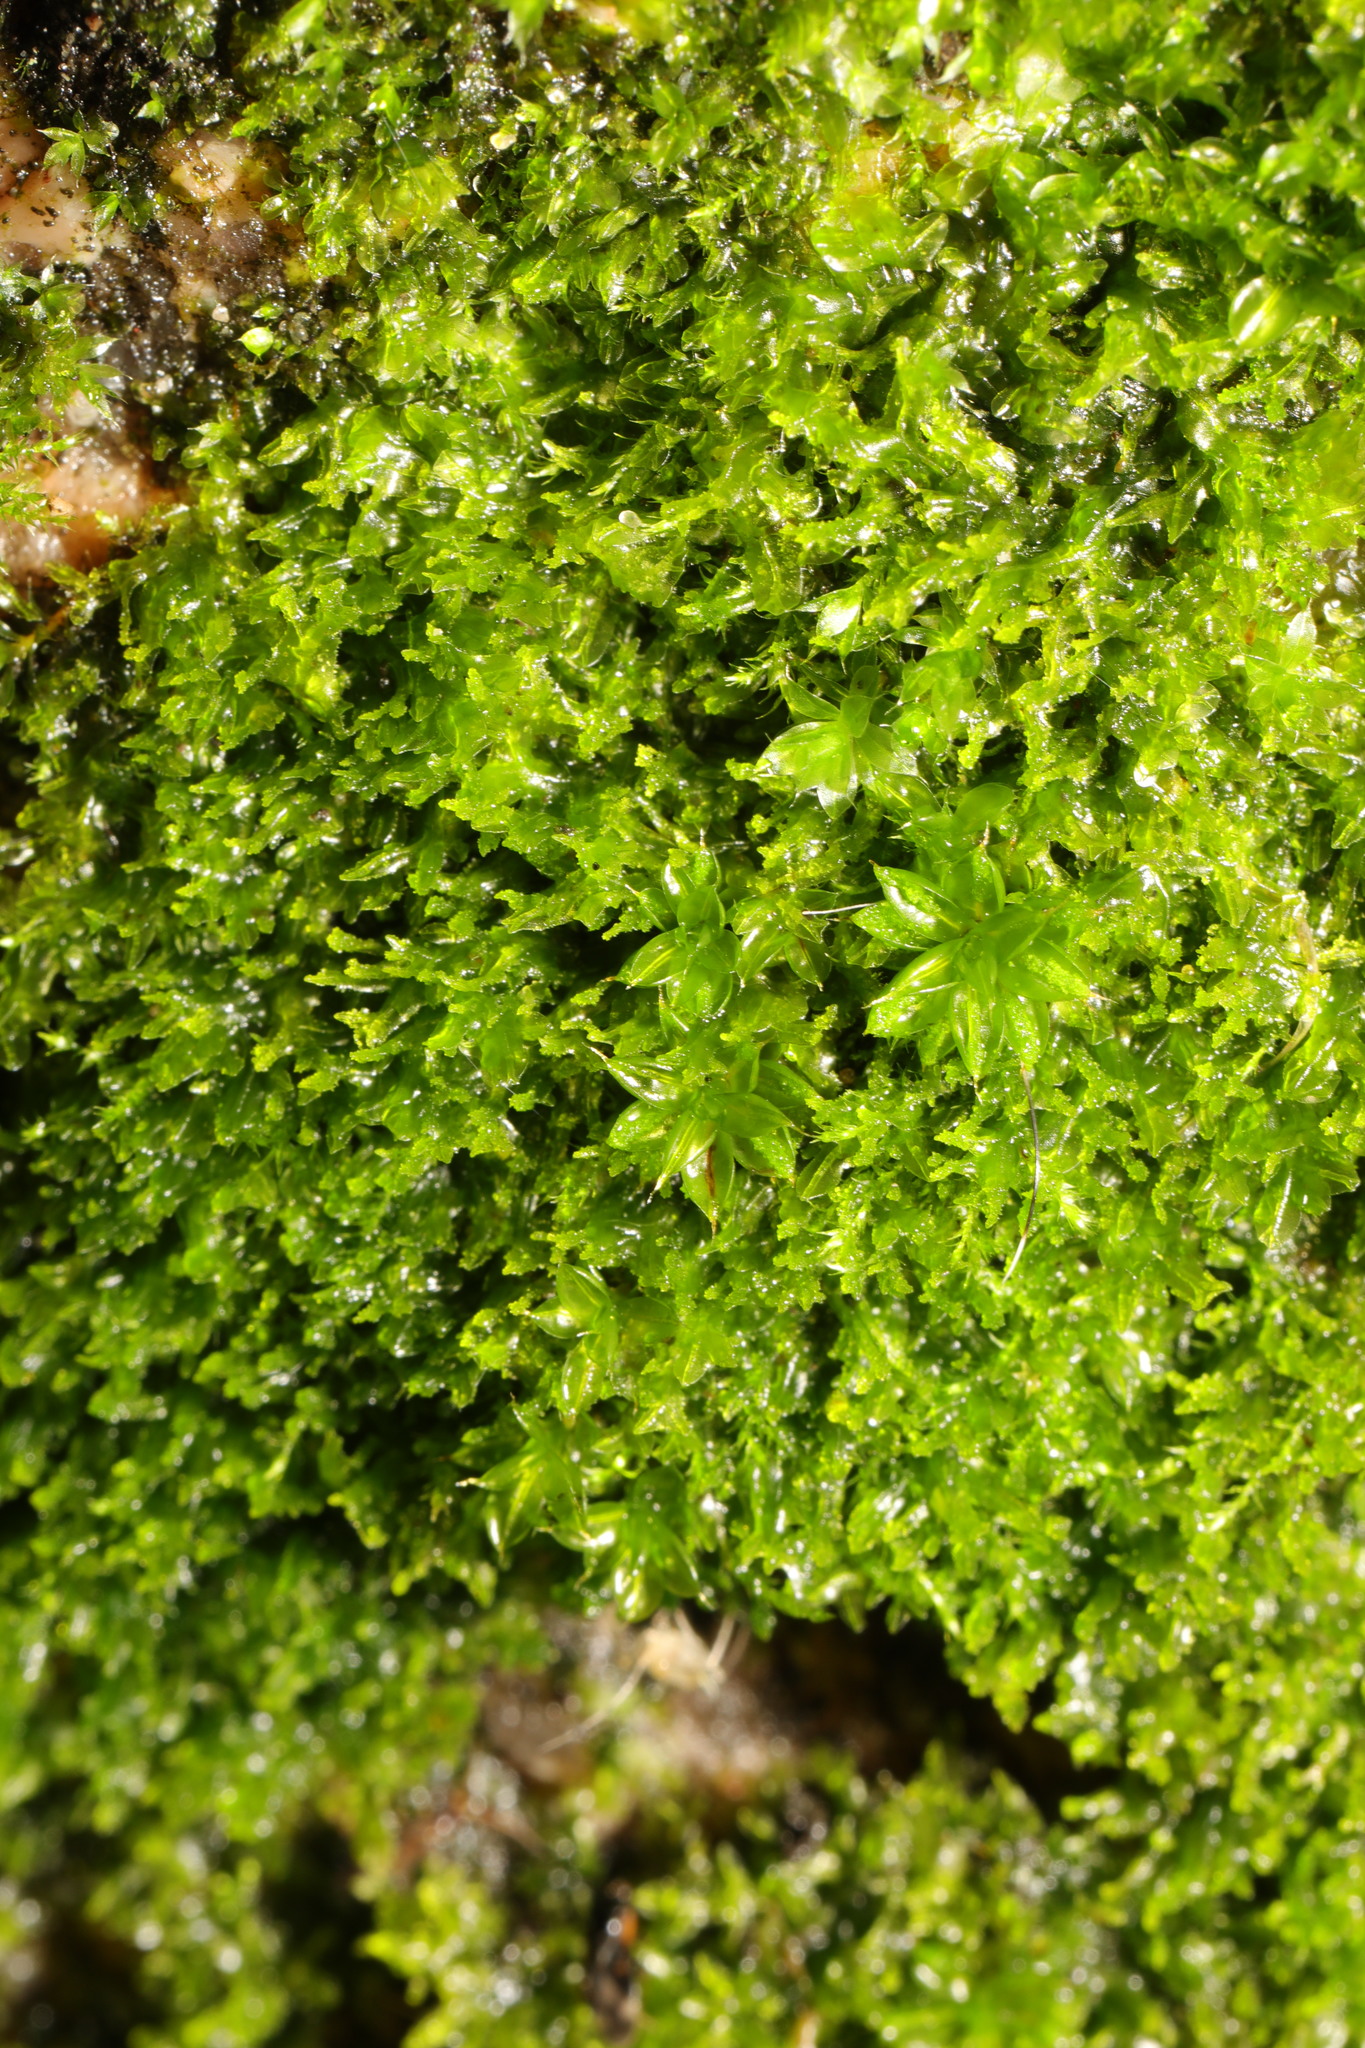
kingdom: Plantae
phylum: Bryophyta
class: Bryopsida
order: Pottiales
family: Pottiaceae
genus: Syntrichia
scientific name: Syntrichia papillosa
